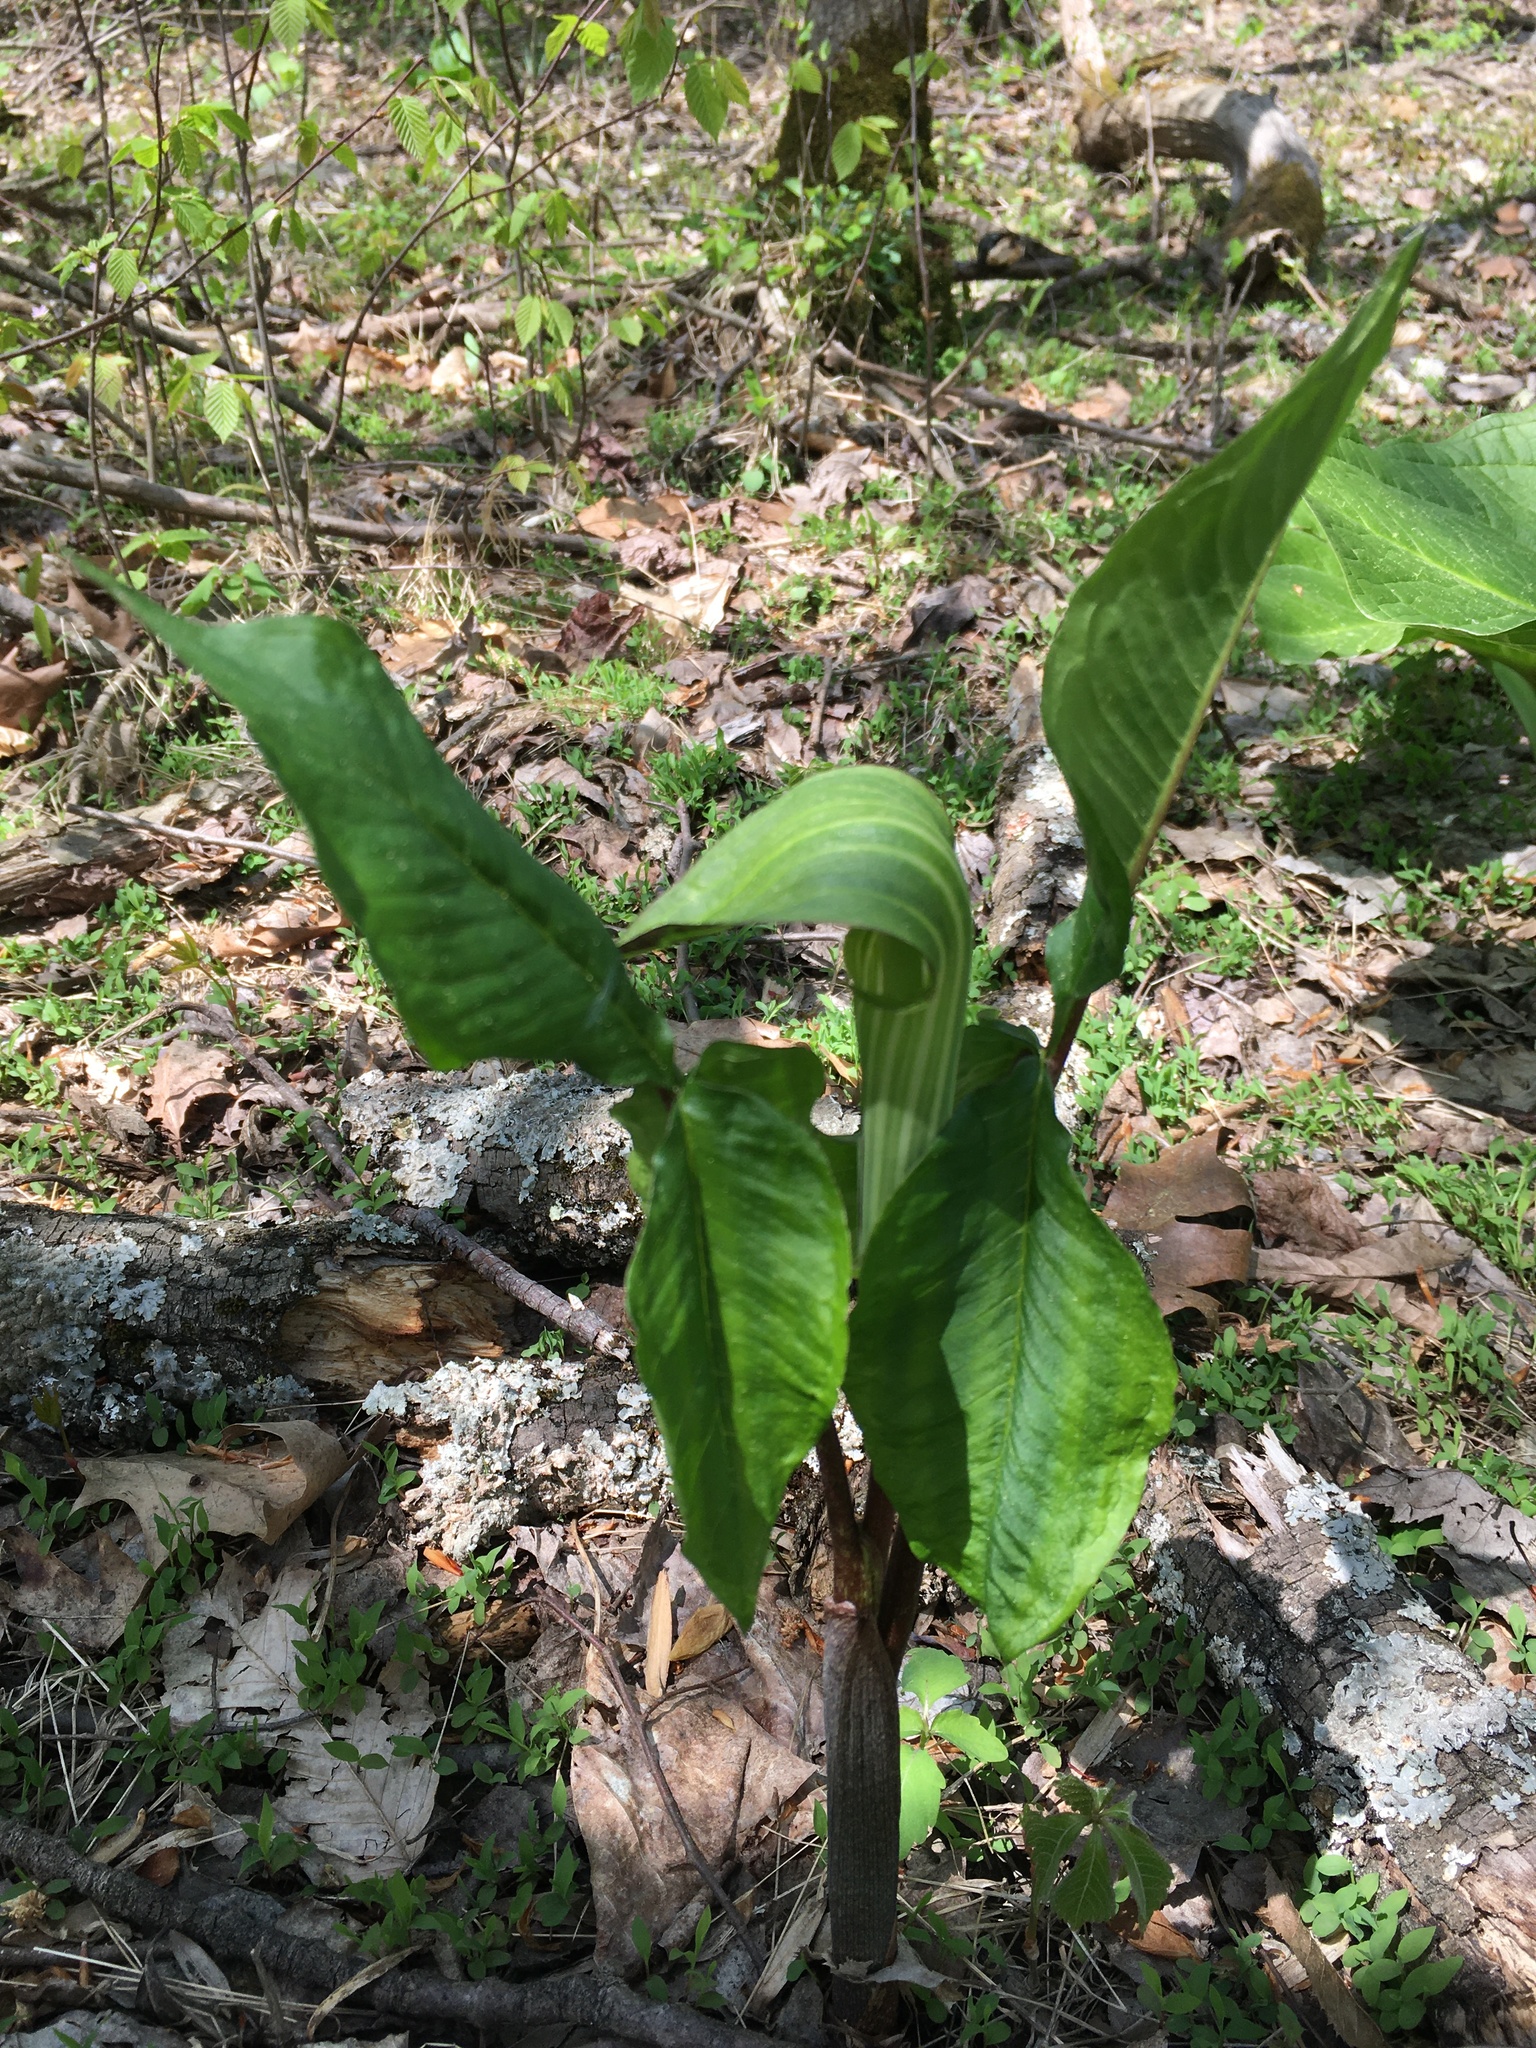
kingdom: Plantae
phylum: Tracheophyta
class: Liliopsida
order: Alismatales
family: Araceae
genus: Arisaema
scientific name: Arisaema triphyllum
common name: Jack-in-the-pulpit
